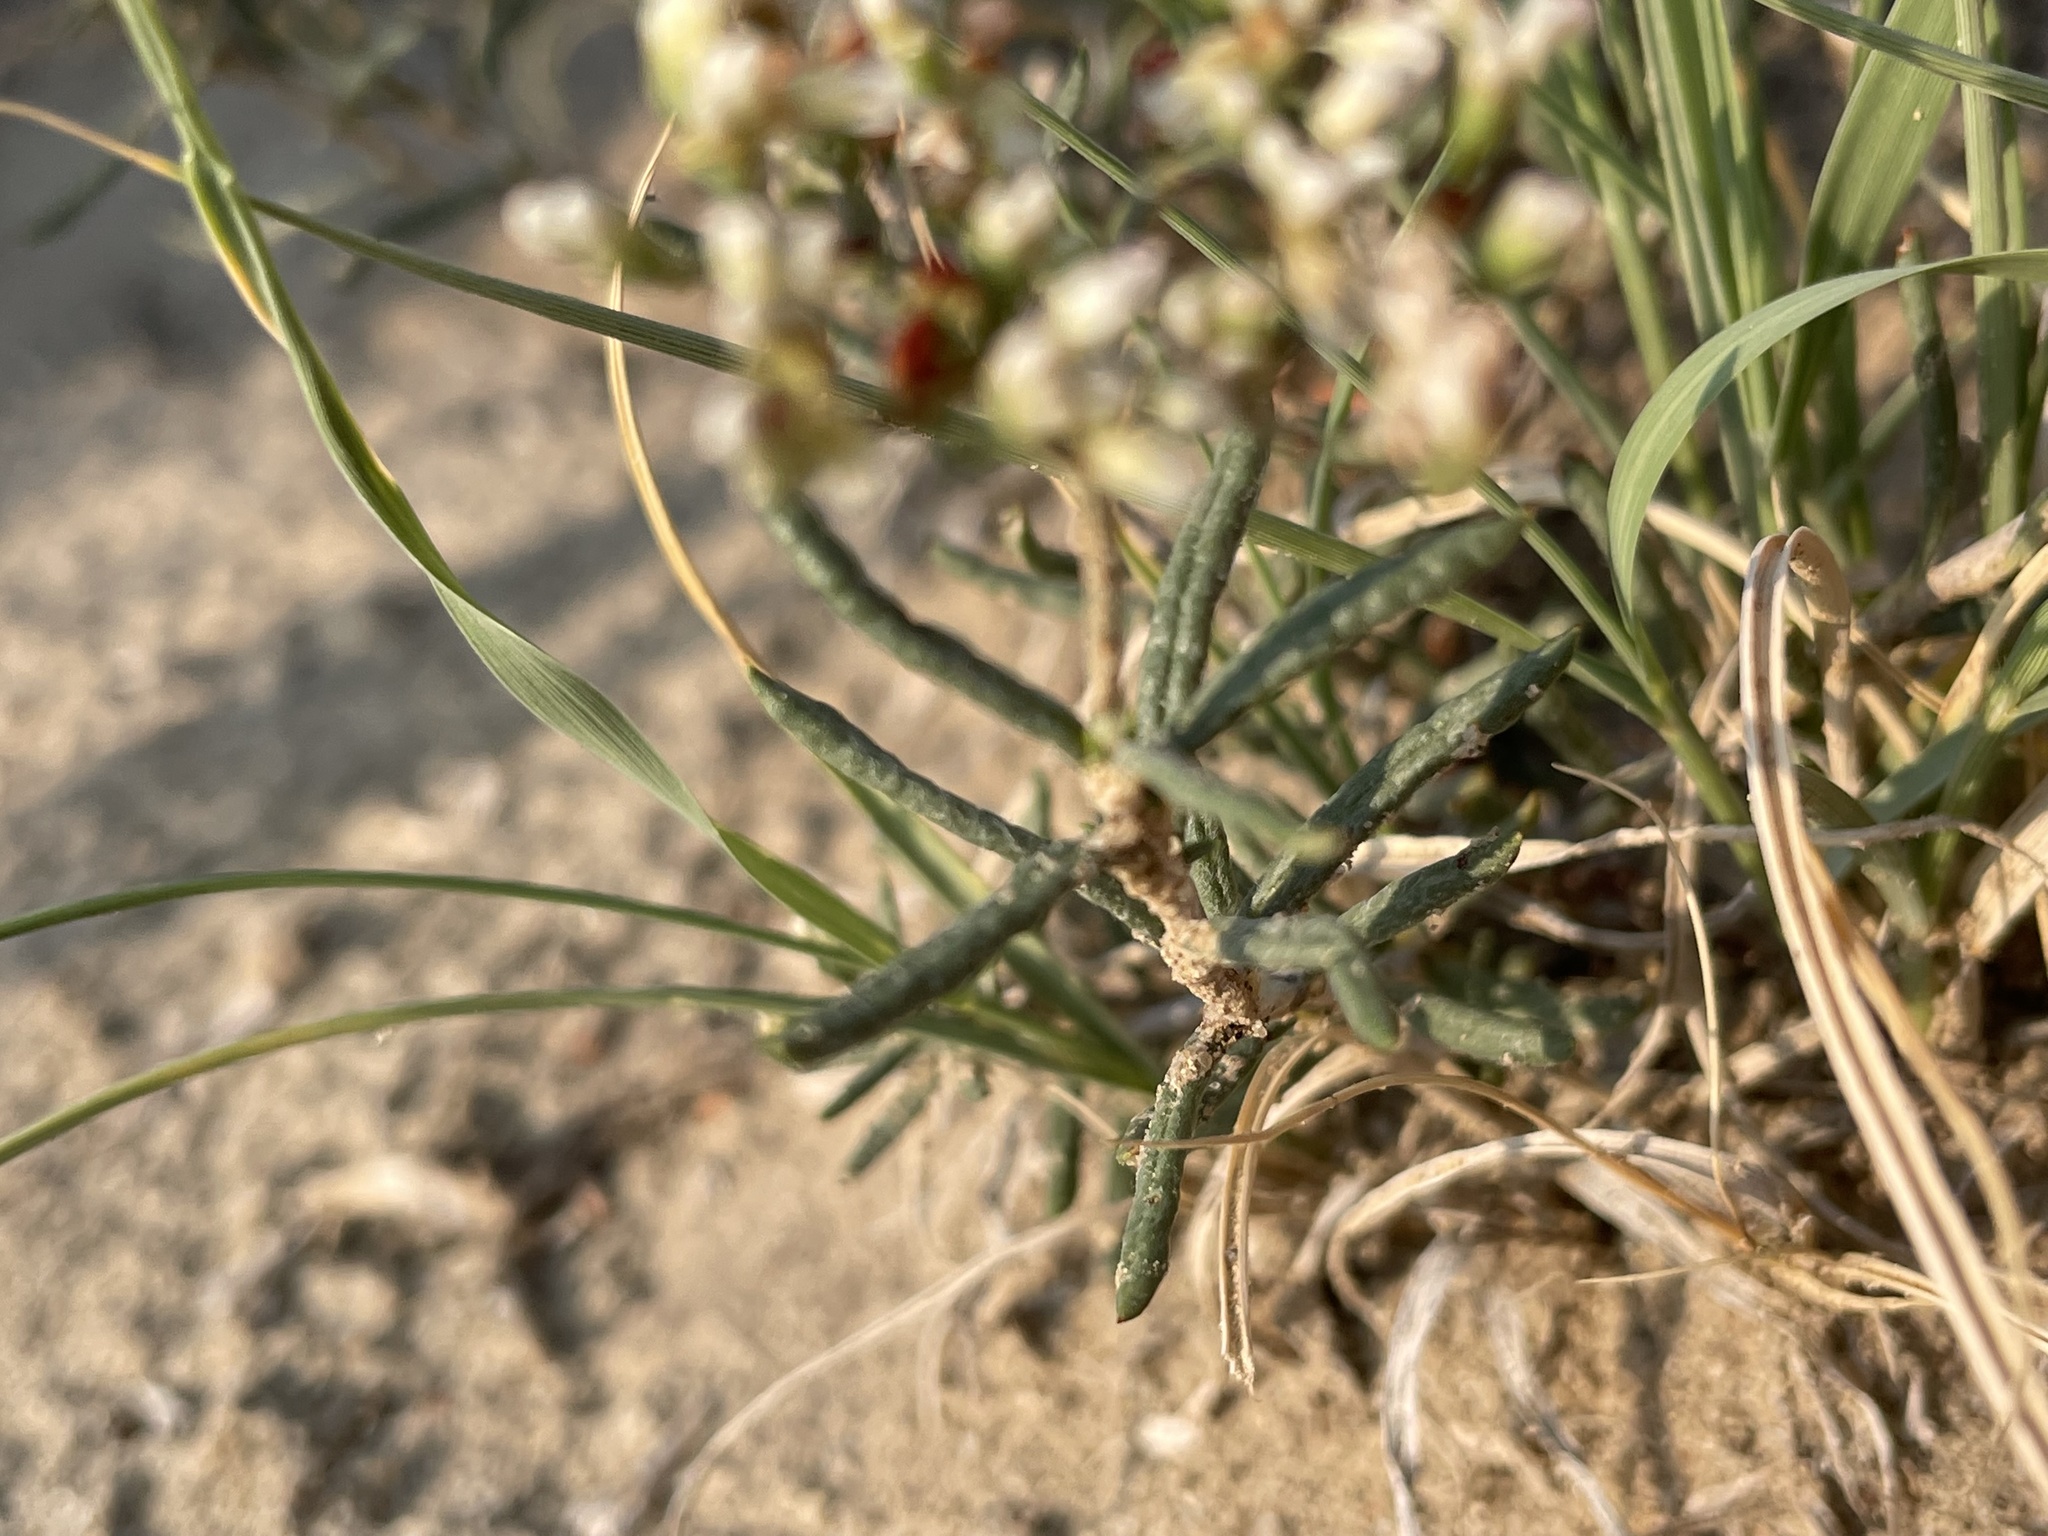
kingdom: Plantae
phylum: Tracheophyta
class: Magnoliopsida
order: Caryophyllales
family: Polygonaceae
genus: Eriogonum
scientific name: Eriogonum leptophyllum
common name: Slender-leaf wild buckwheat
